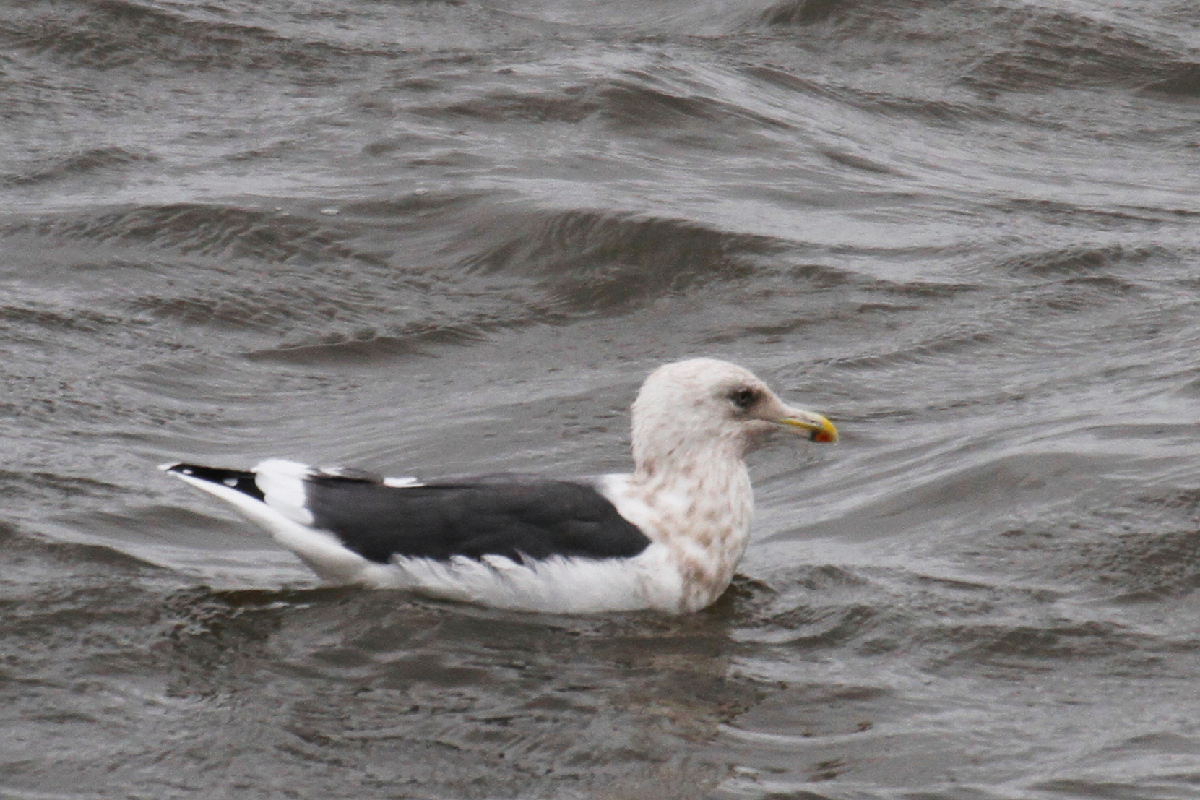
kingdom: Animalia
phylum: Chordata
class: Aves
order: Charadriiformes
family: Laridae
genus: Larus
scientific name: Larus schistisagus
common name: Slaty-backed gull
